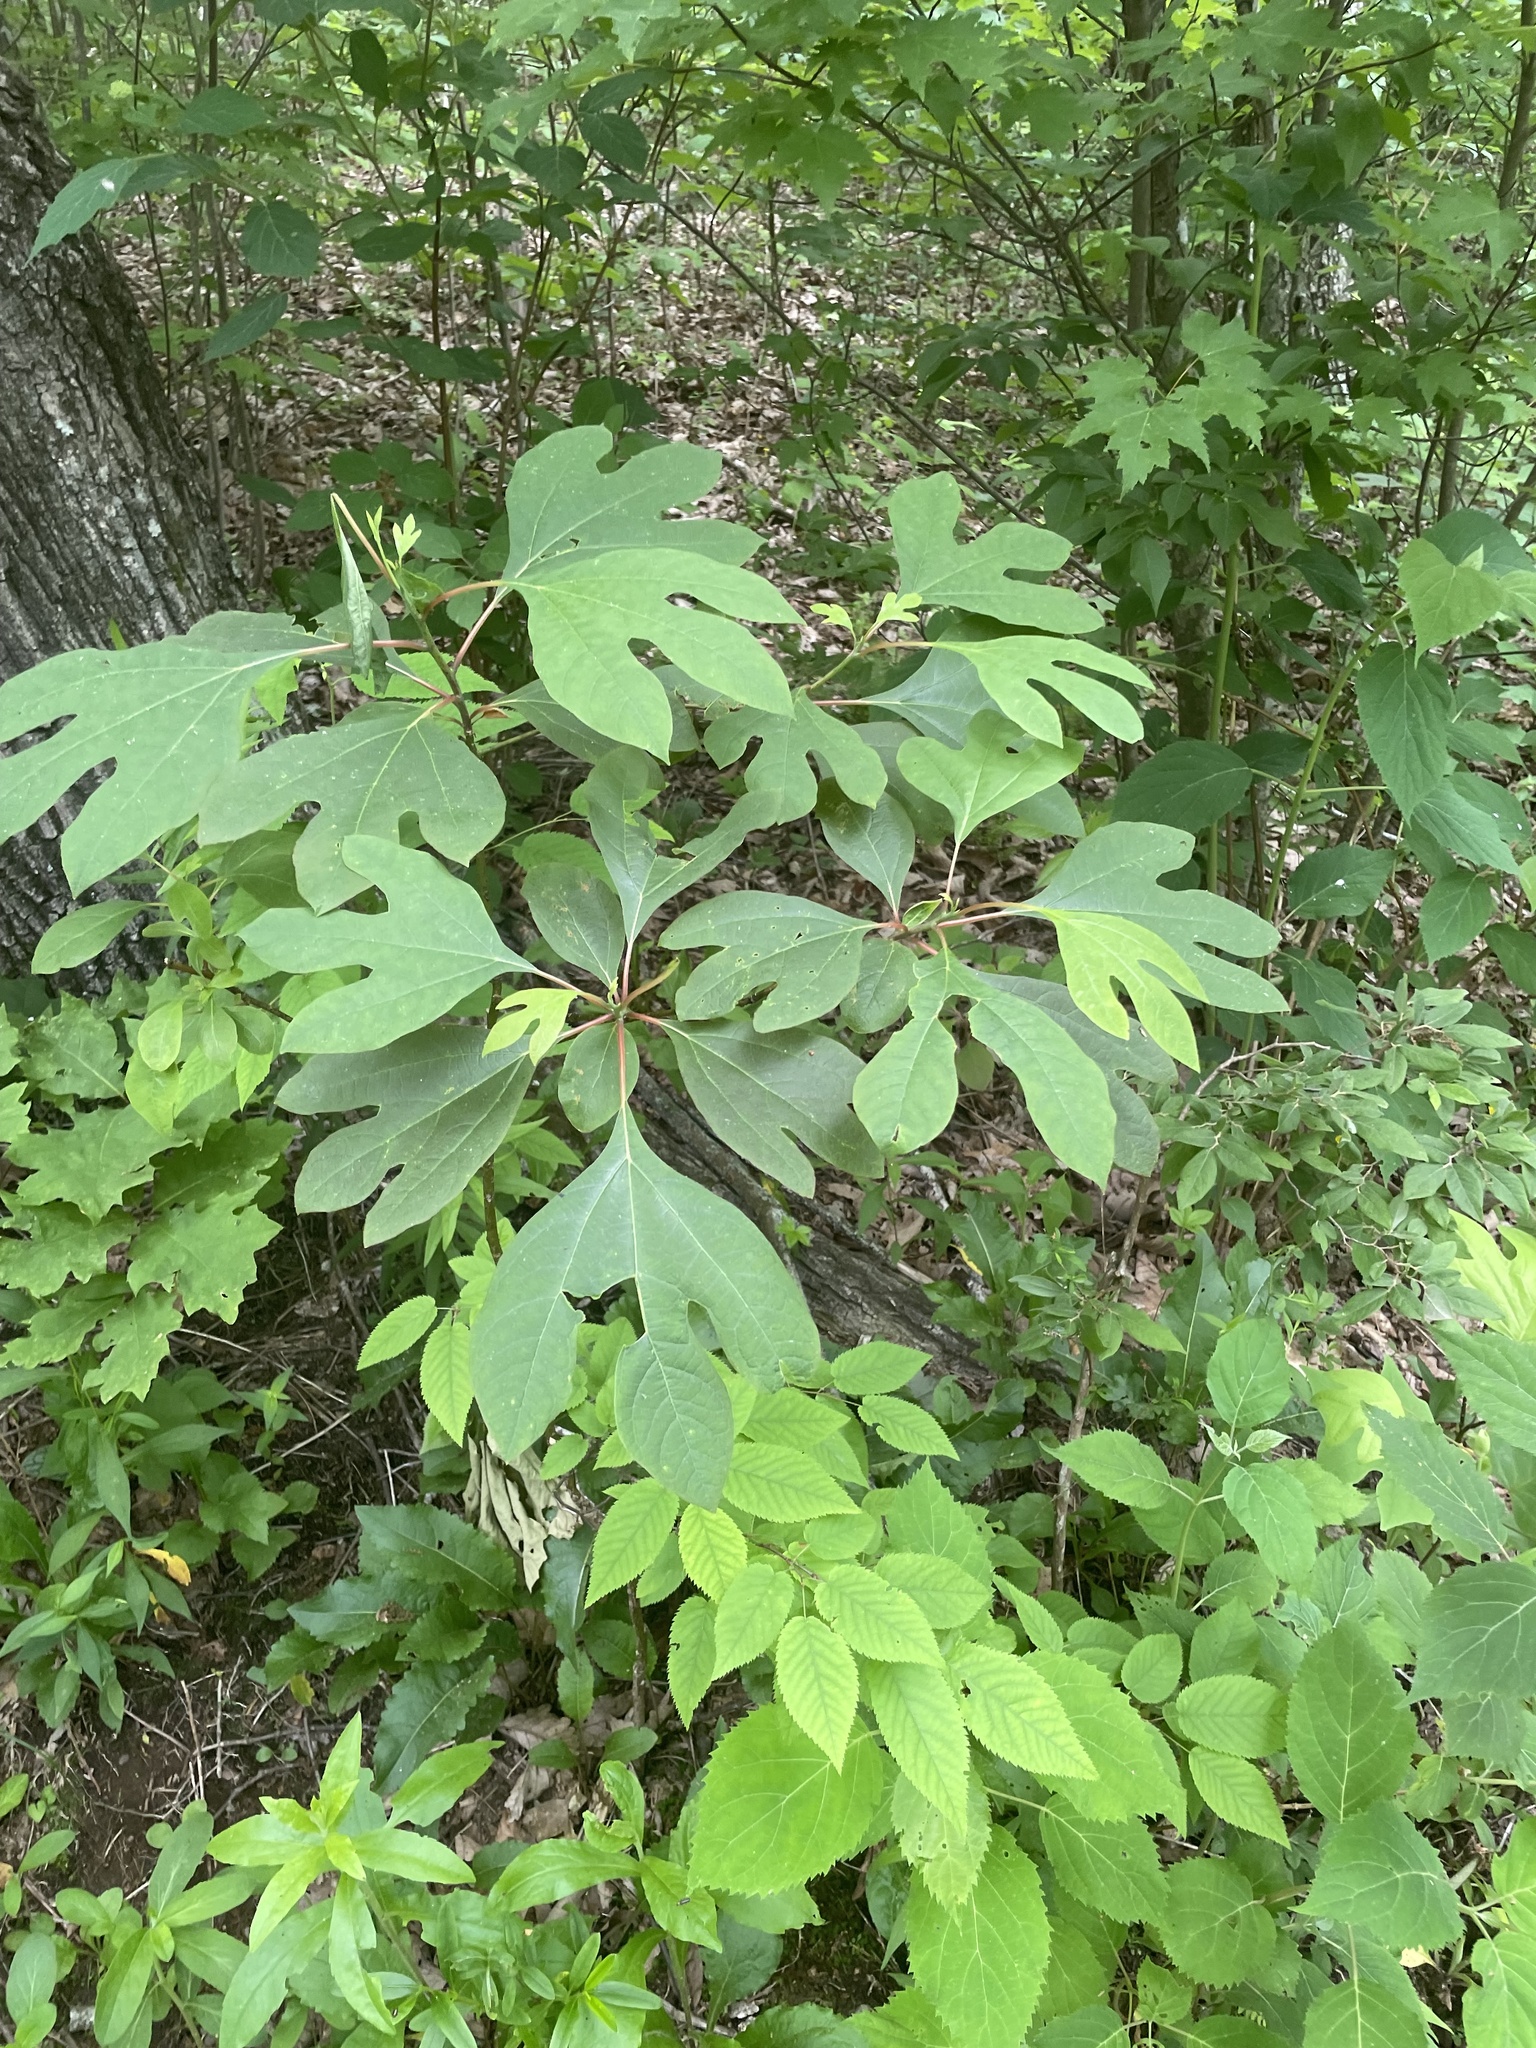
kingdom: Plantae
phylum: Tracheophyta
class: Magnoliopsida
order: Laurales
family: Lauraceae
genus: Sassafras
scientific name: Sassafras albidum
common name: Sassafras
